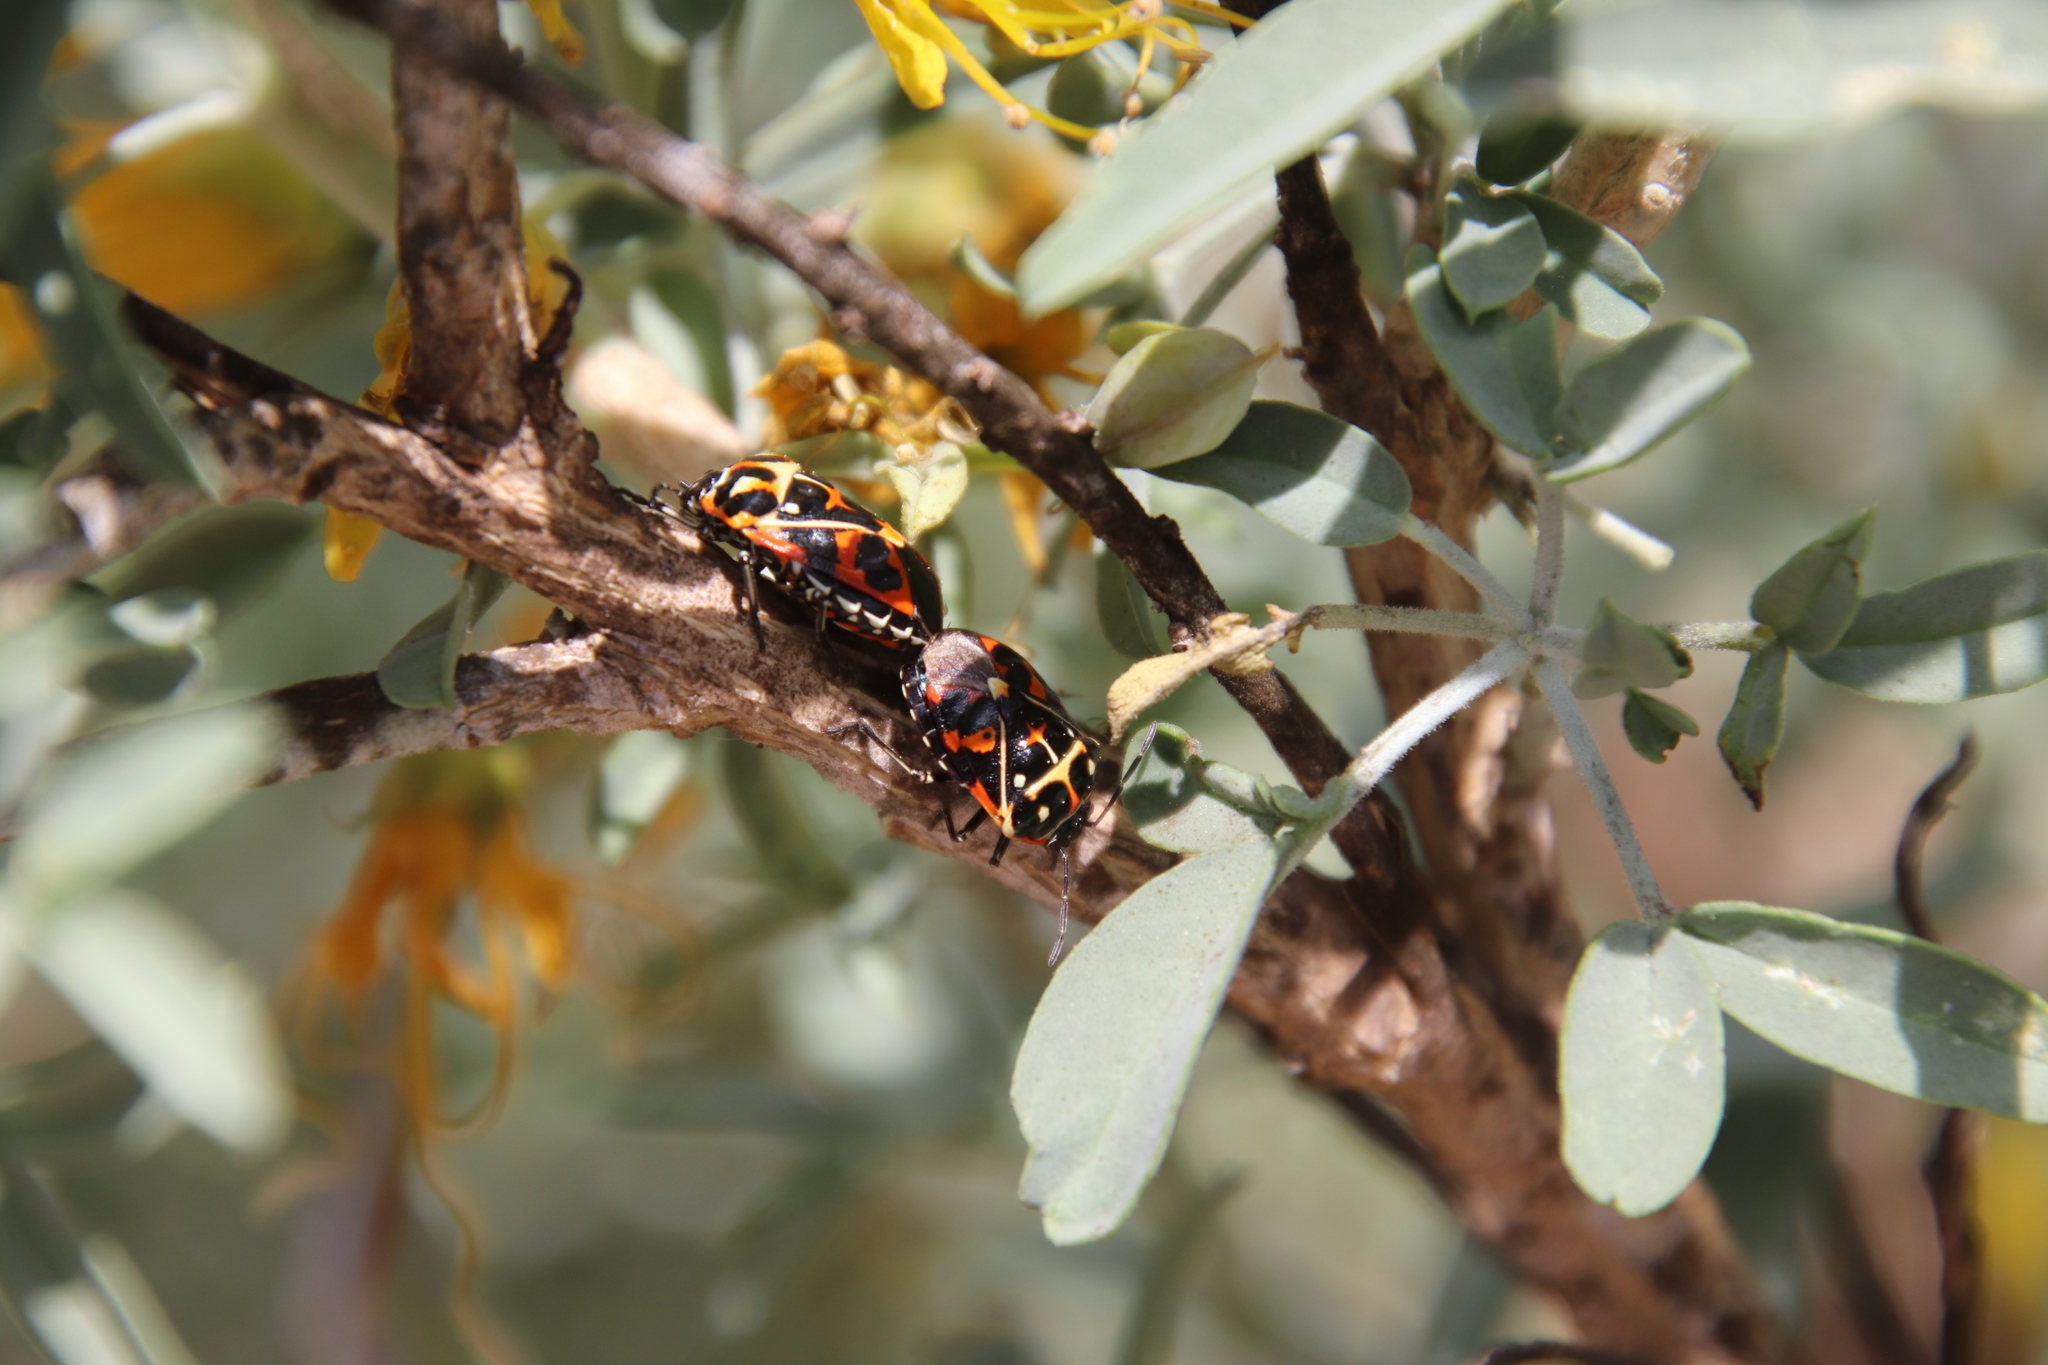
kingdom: Animalia
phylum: Arthropoda
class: Insecta
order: Hemiptera
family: Pentatomidae
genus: Murgantia
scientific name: Murgantia histrionica
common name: Harlequin bug
